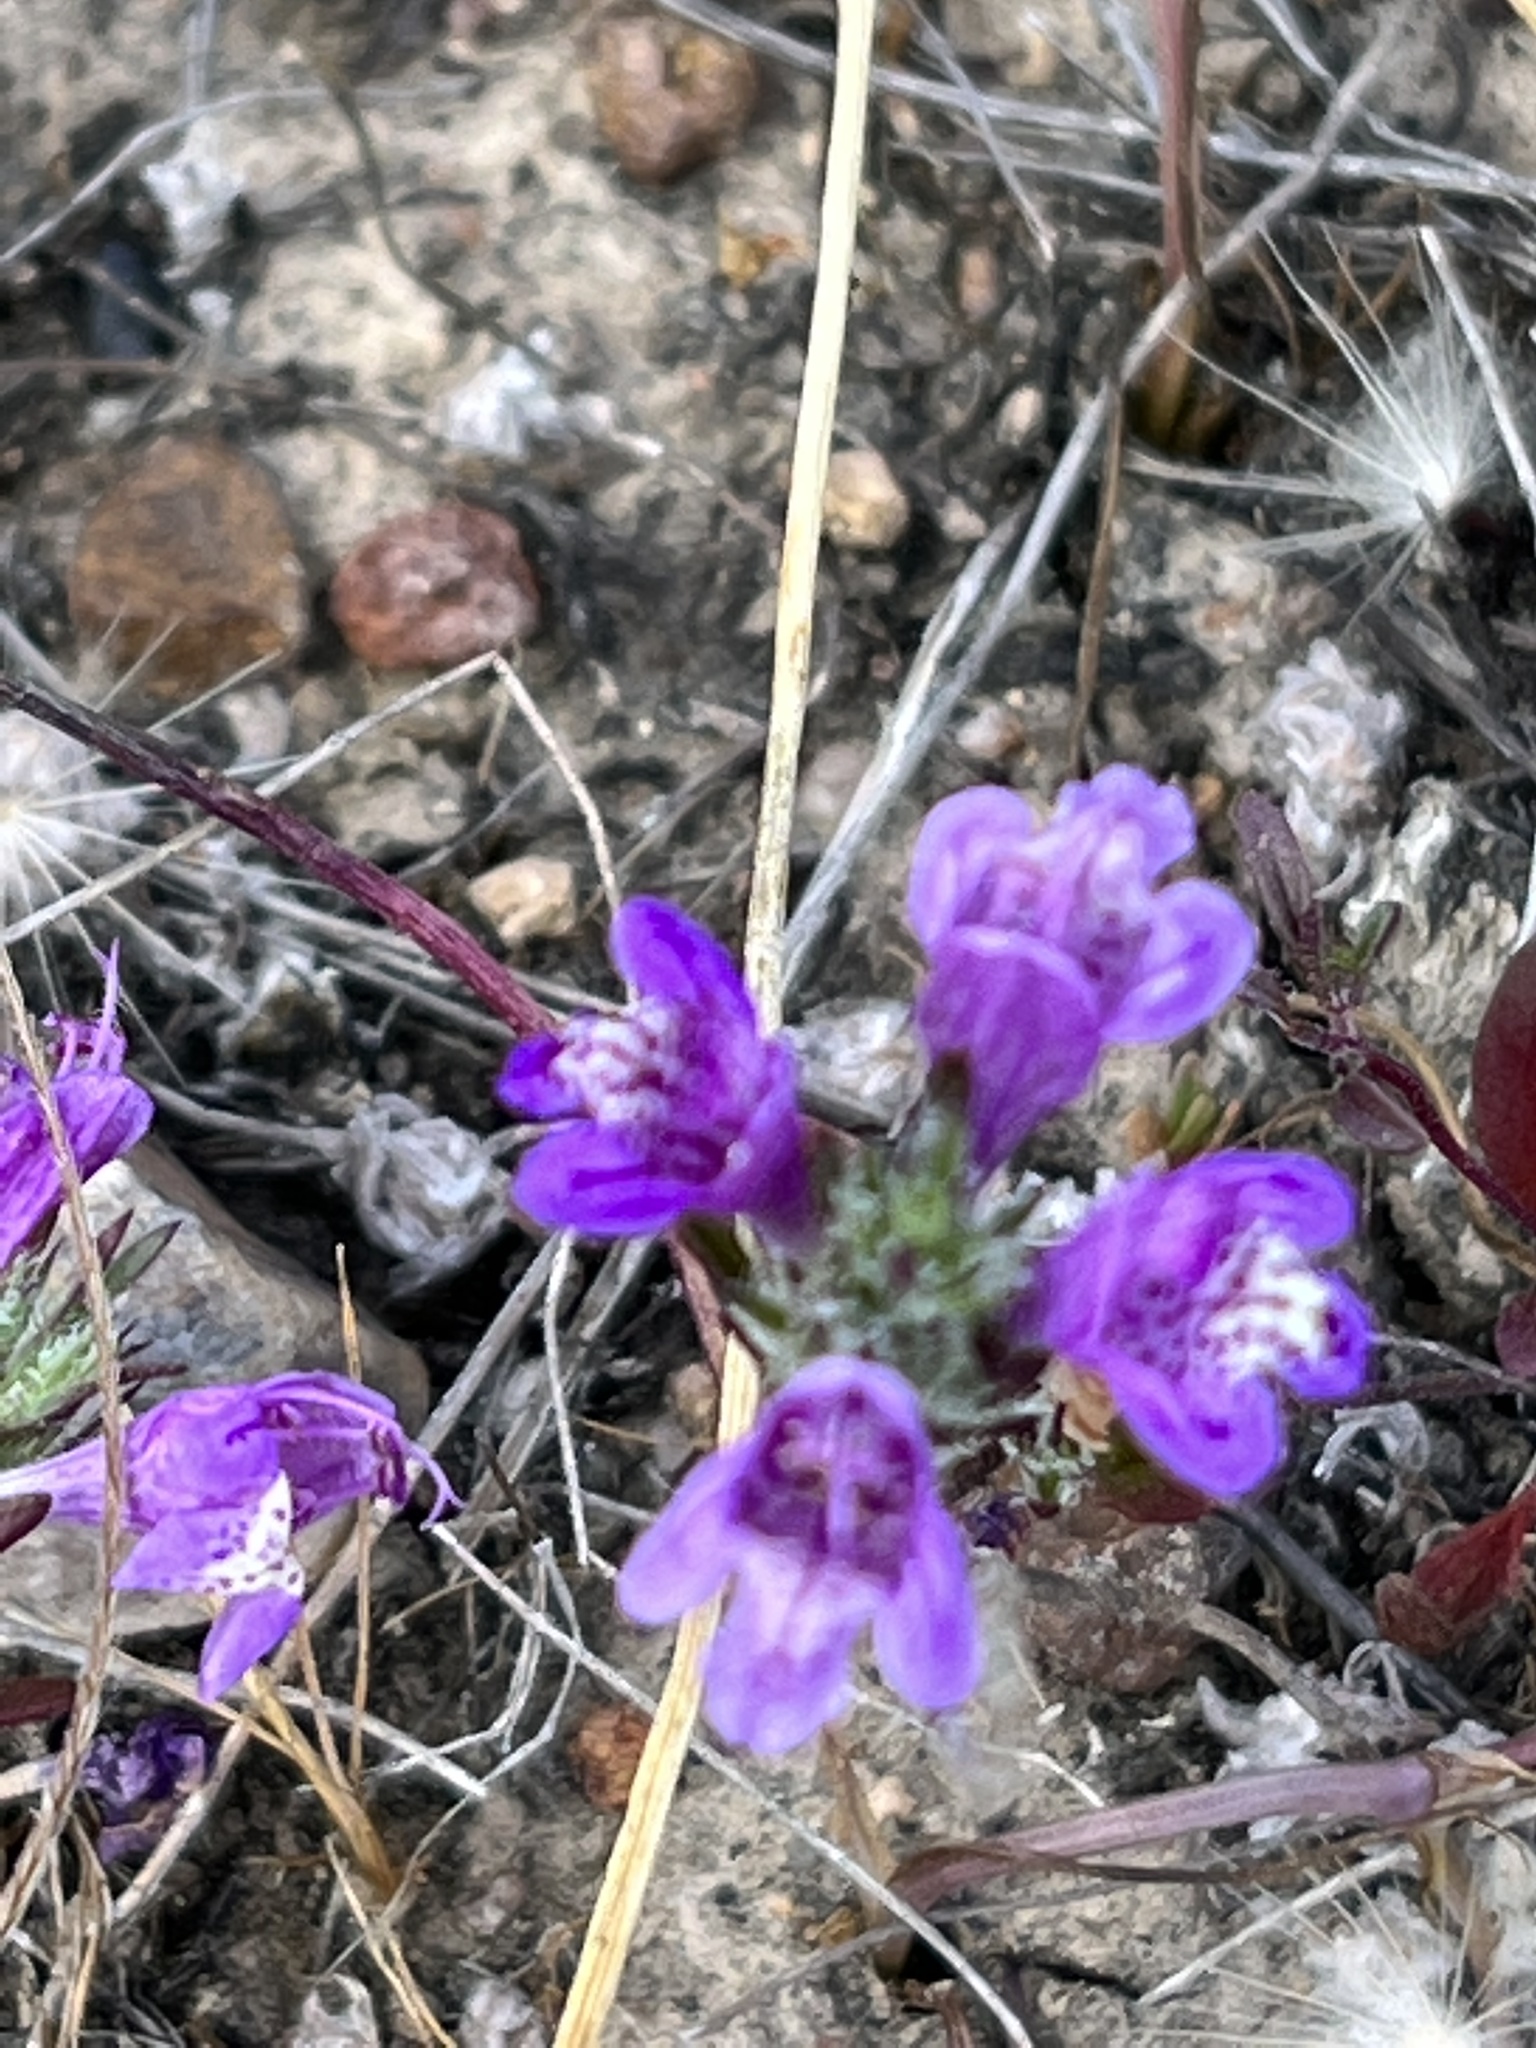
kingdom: Plantae
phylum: Tracheophyta
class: Magnoliopsida
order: Lamiales
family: Lamiaceae
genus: Pogogyne
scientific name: Pogogyne abramsii
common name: San diego mesa-mint
